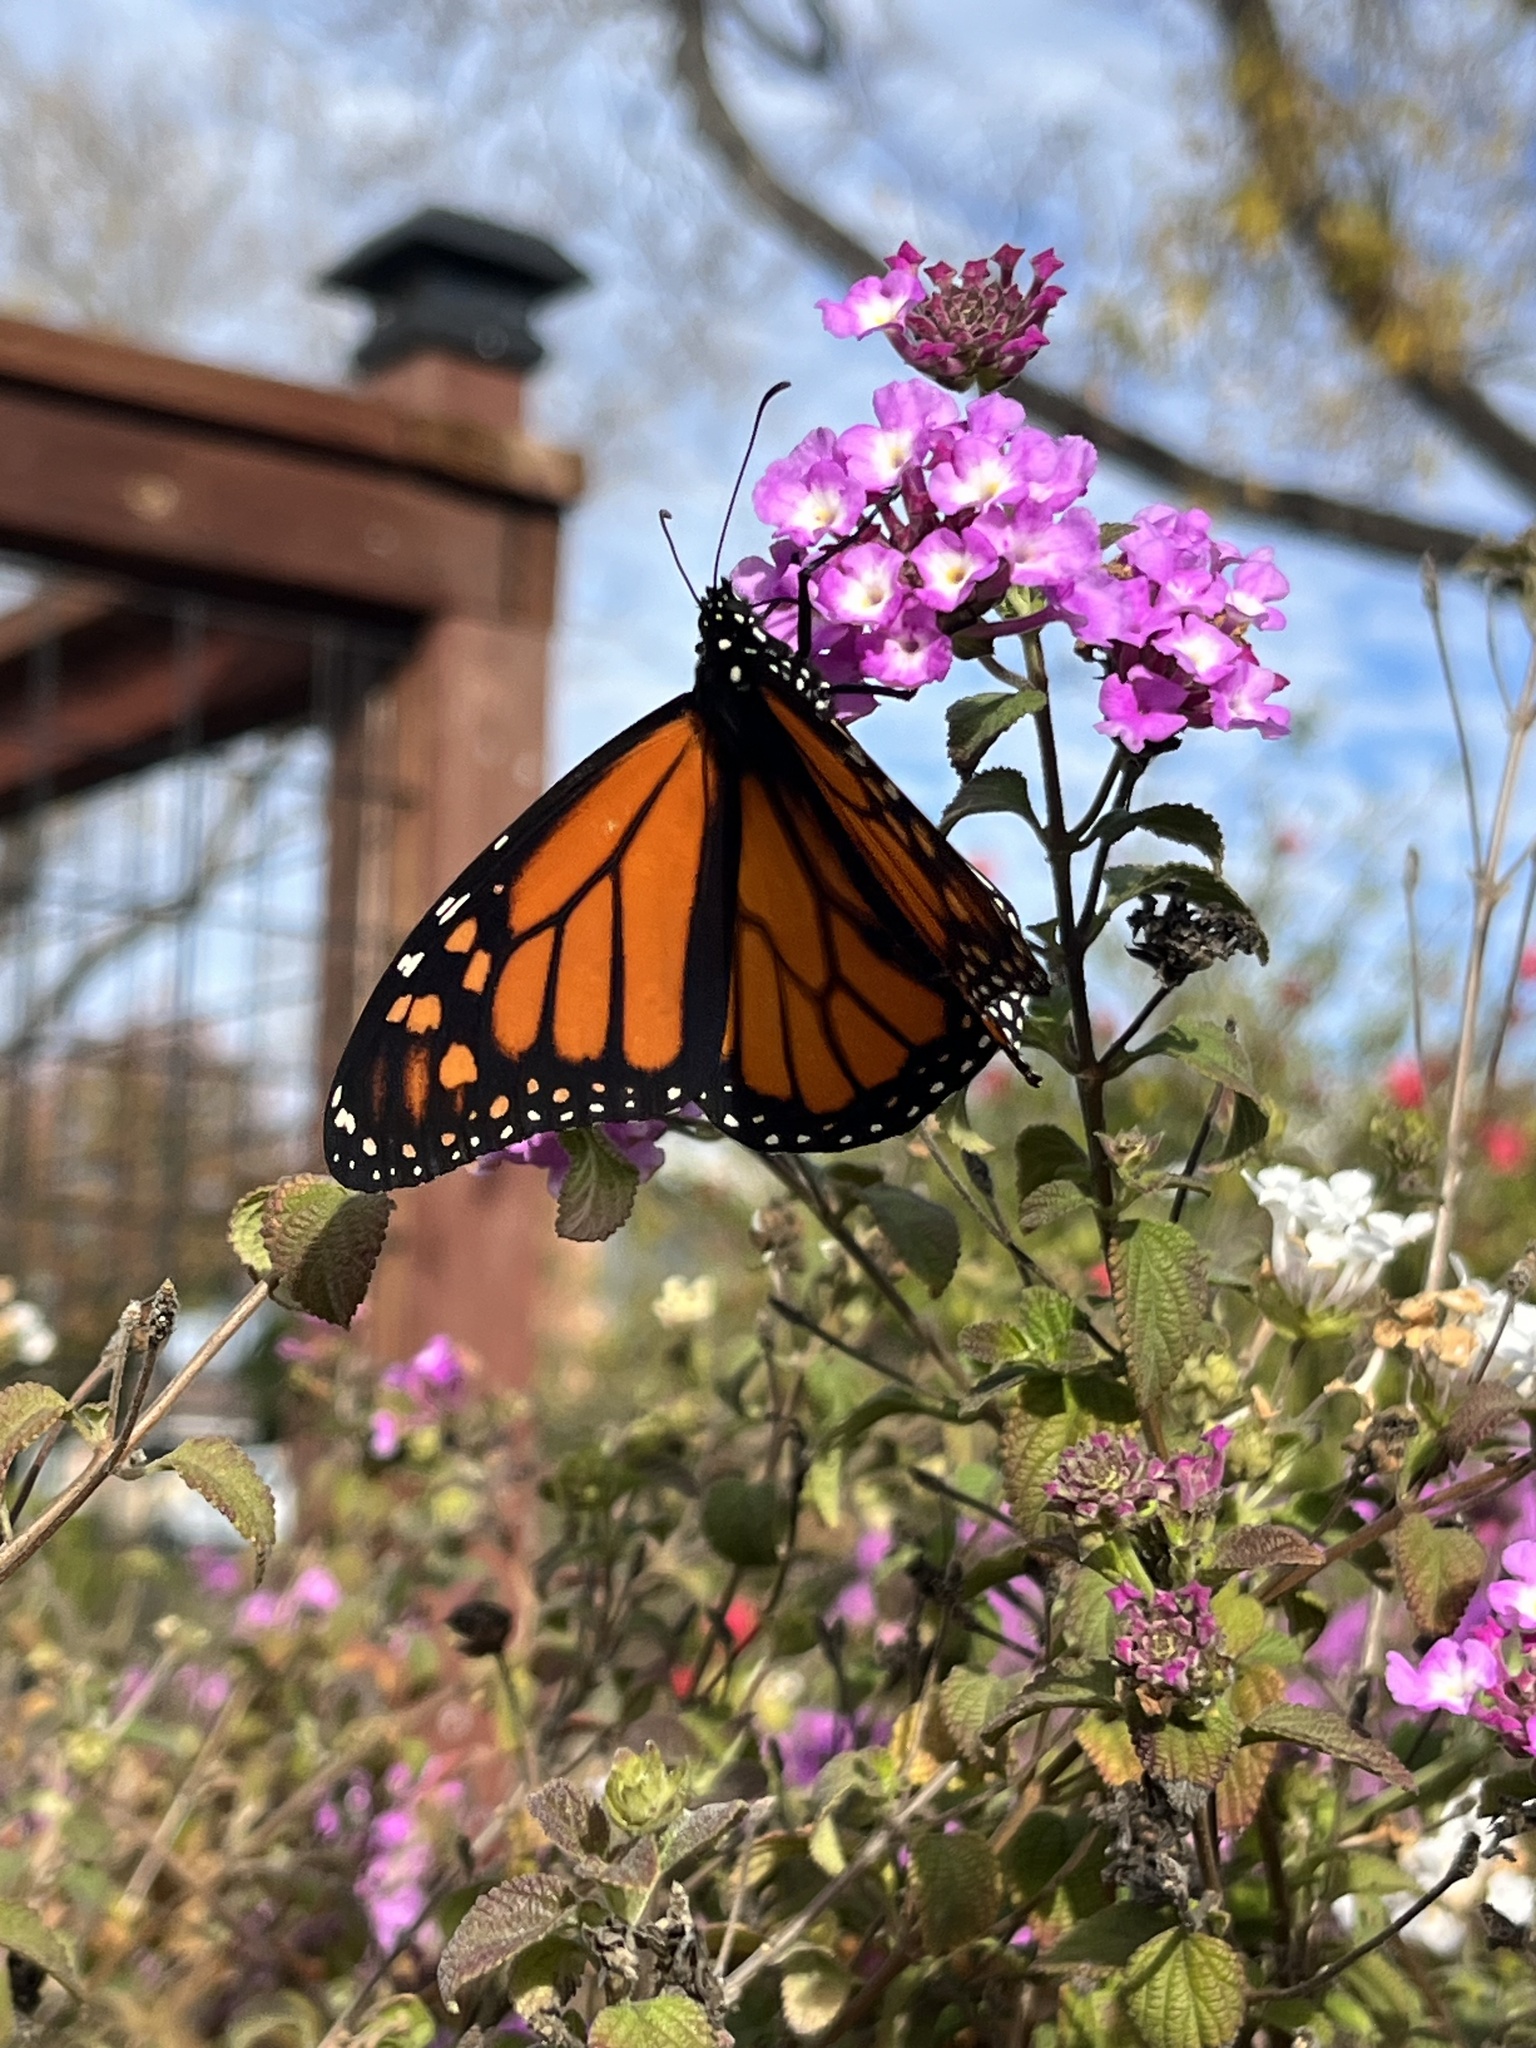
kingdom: Animalia
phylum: Arthropoda
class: Insecta
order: Lepidoptera
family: Nymphalidae
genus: Danaus
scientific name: Danaus plexippus
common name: Monarch
